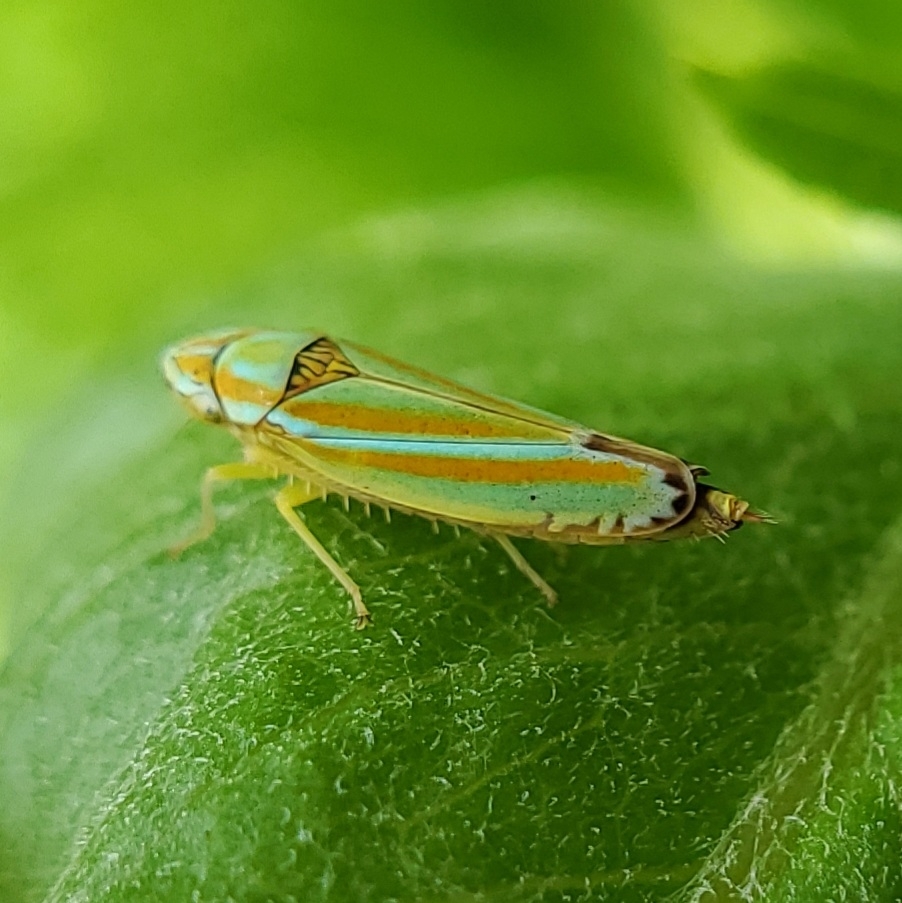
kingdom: Animalia
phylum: Arthropoda
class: Insecta
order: Hemiptera
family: Cicadellidae
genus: Graphocephala
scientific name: Graphocephala versuta
